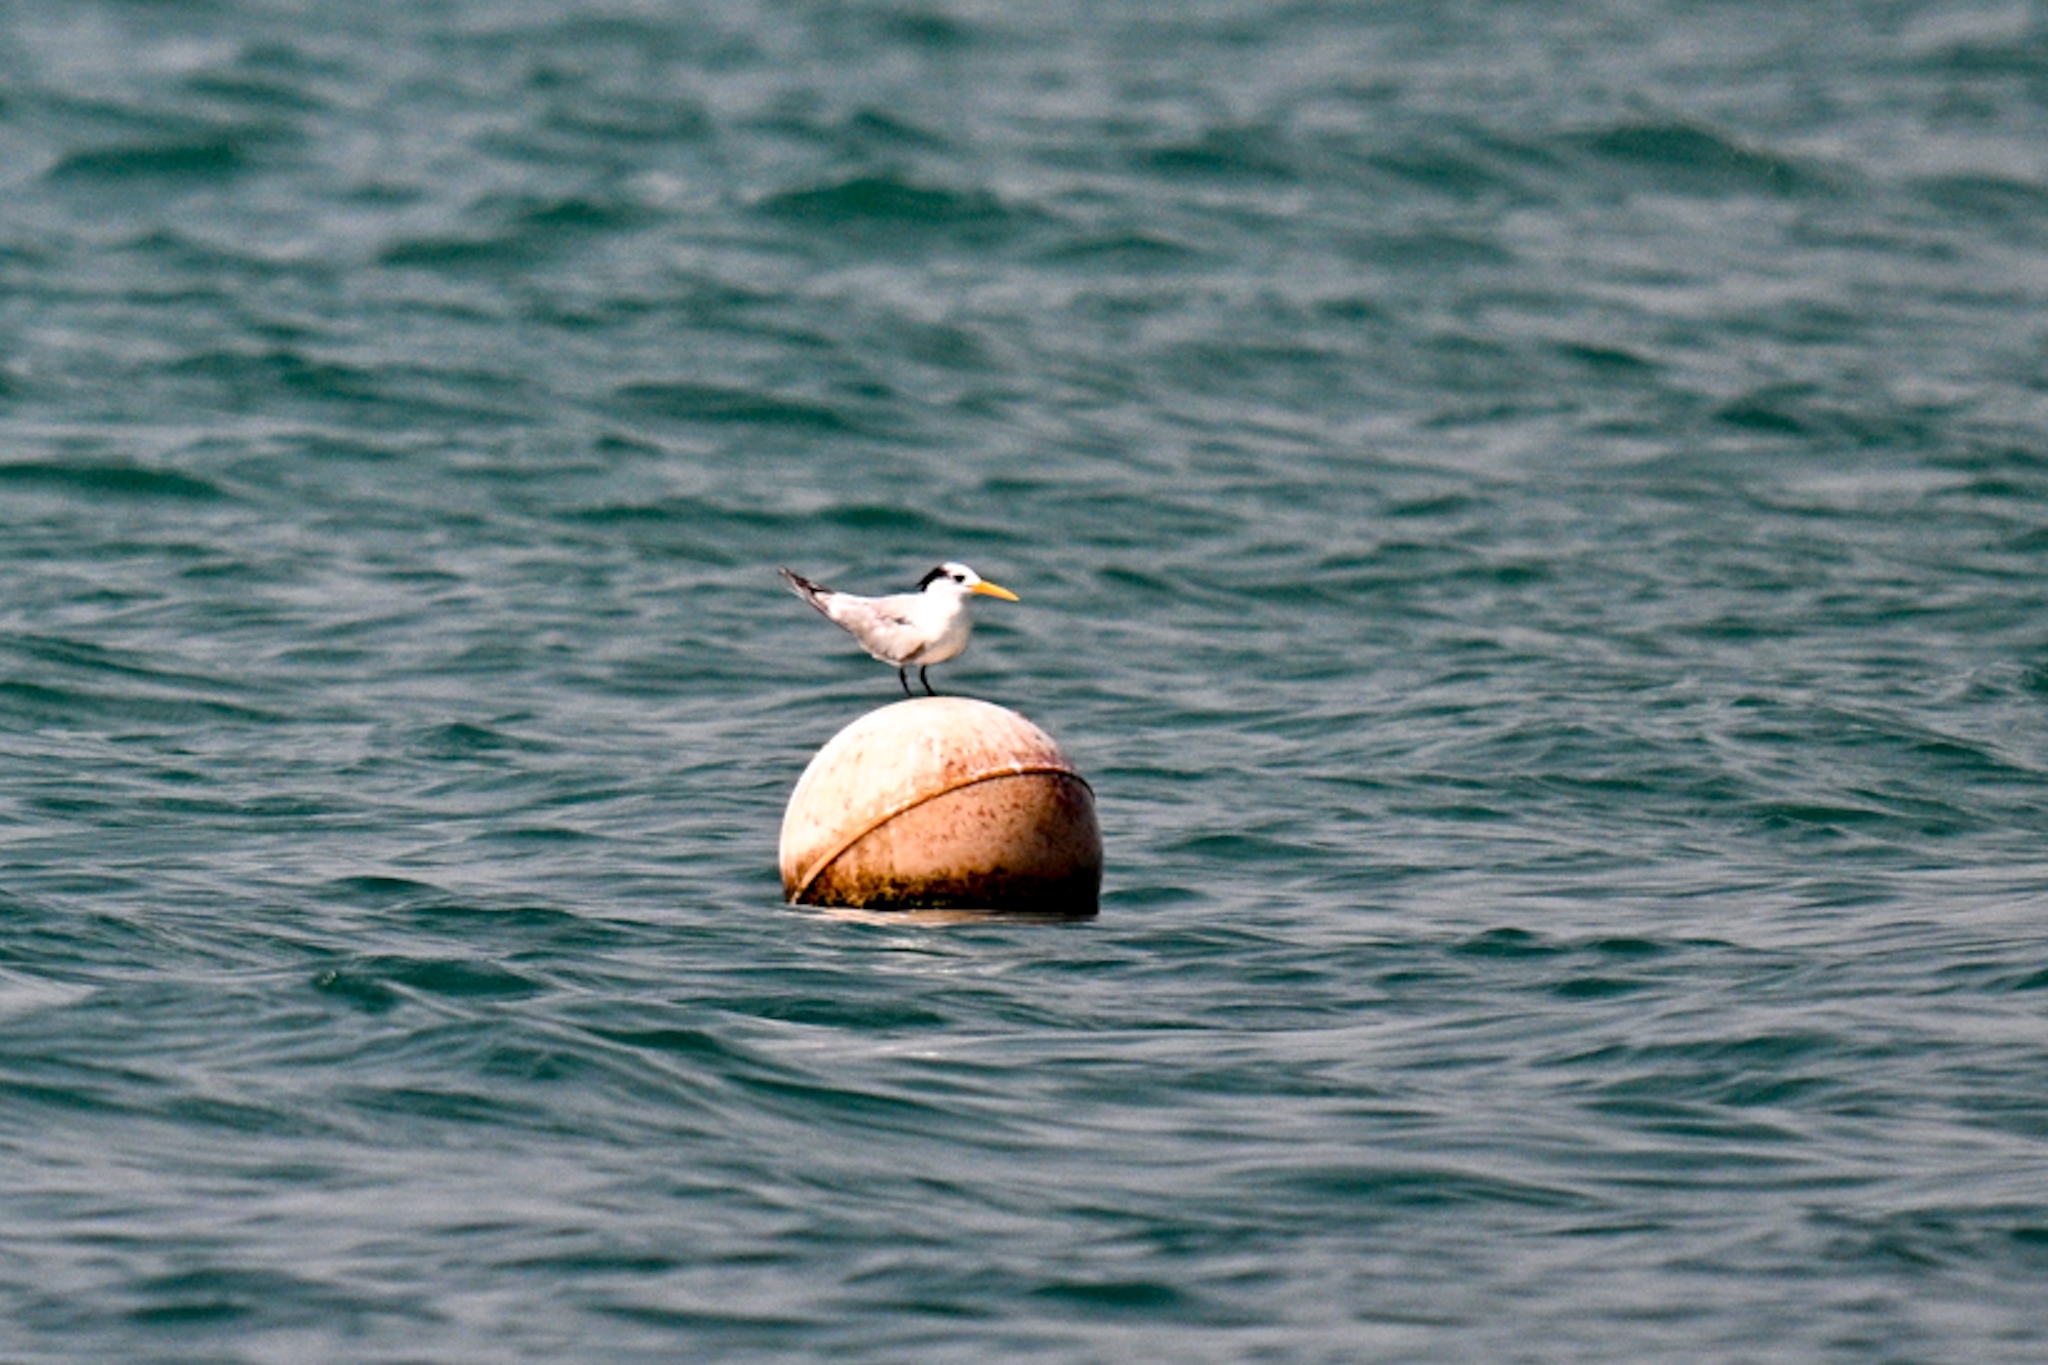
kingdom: Animalia
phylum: Chordata
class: Aves
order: Charadriiformes
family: Laridae
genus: Thalasseus
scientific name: Thalasseus albididorsalis
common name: West african crested tern
